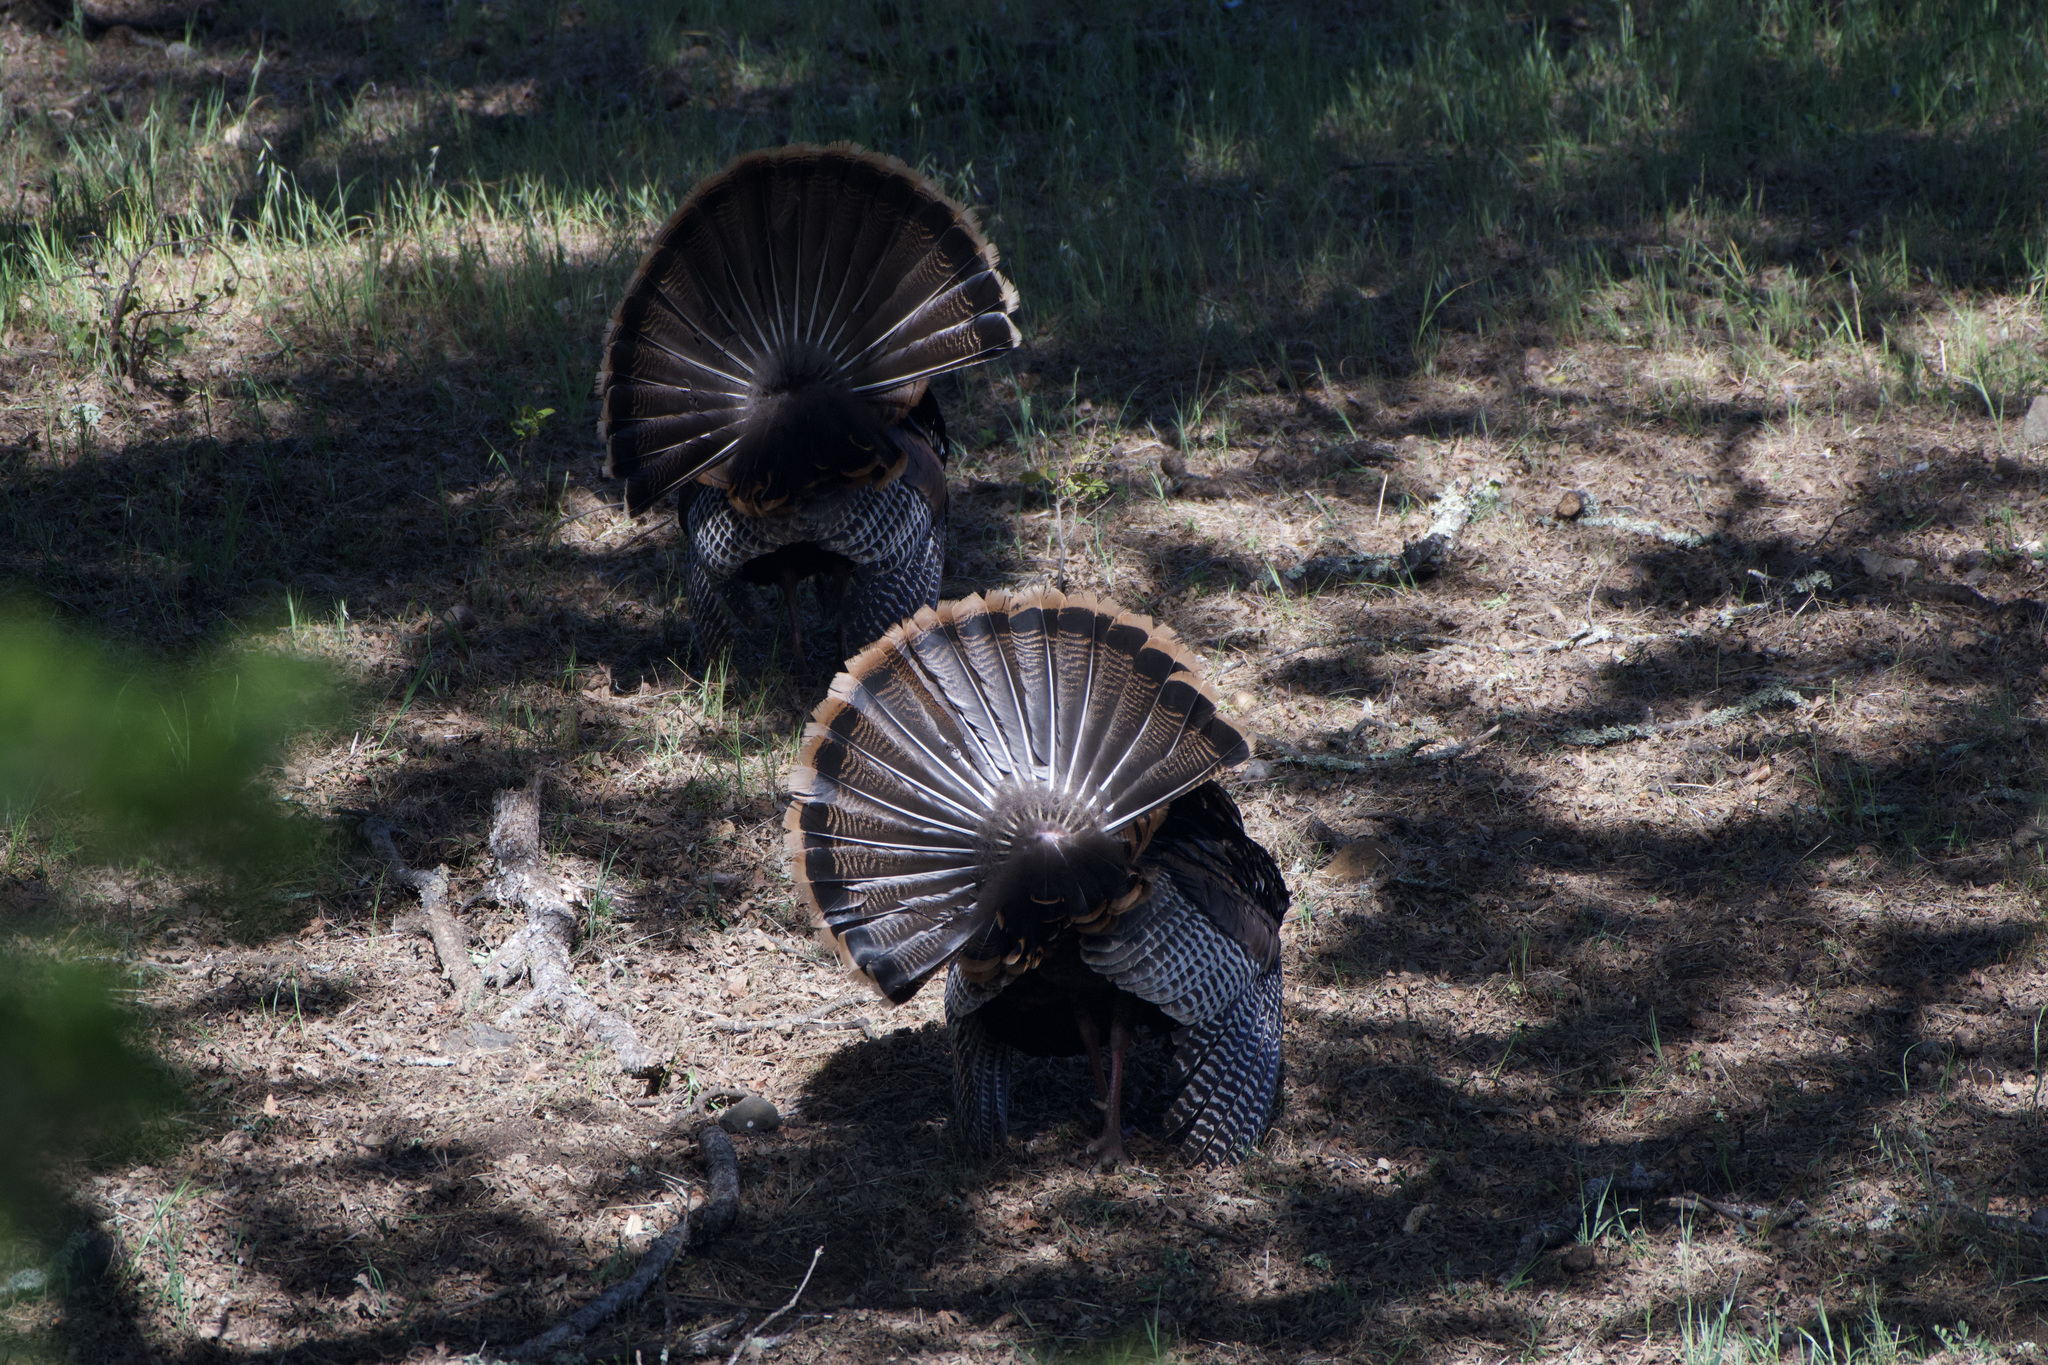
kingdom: Animalia
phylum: Chordata
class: Aves
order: Galliformes
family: Phasianidae
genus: Meleagris
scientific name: Meleagris gallopavo
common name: Wild turkey
